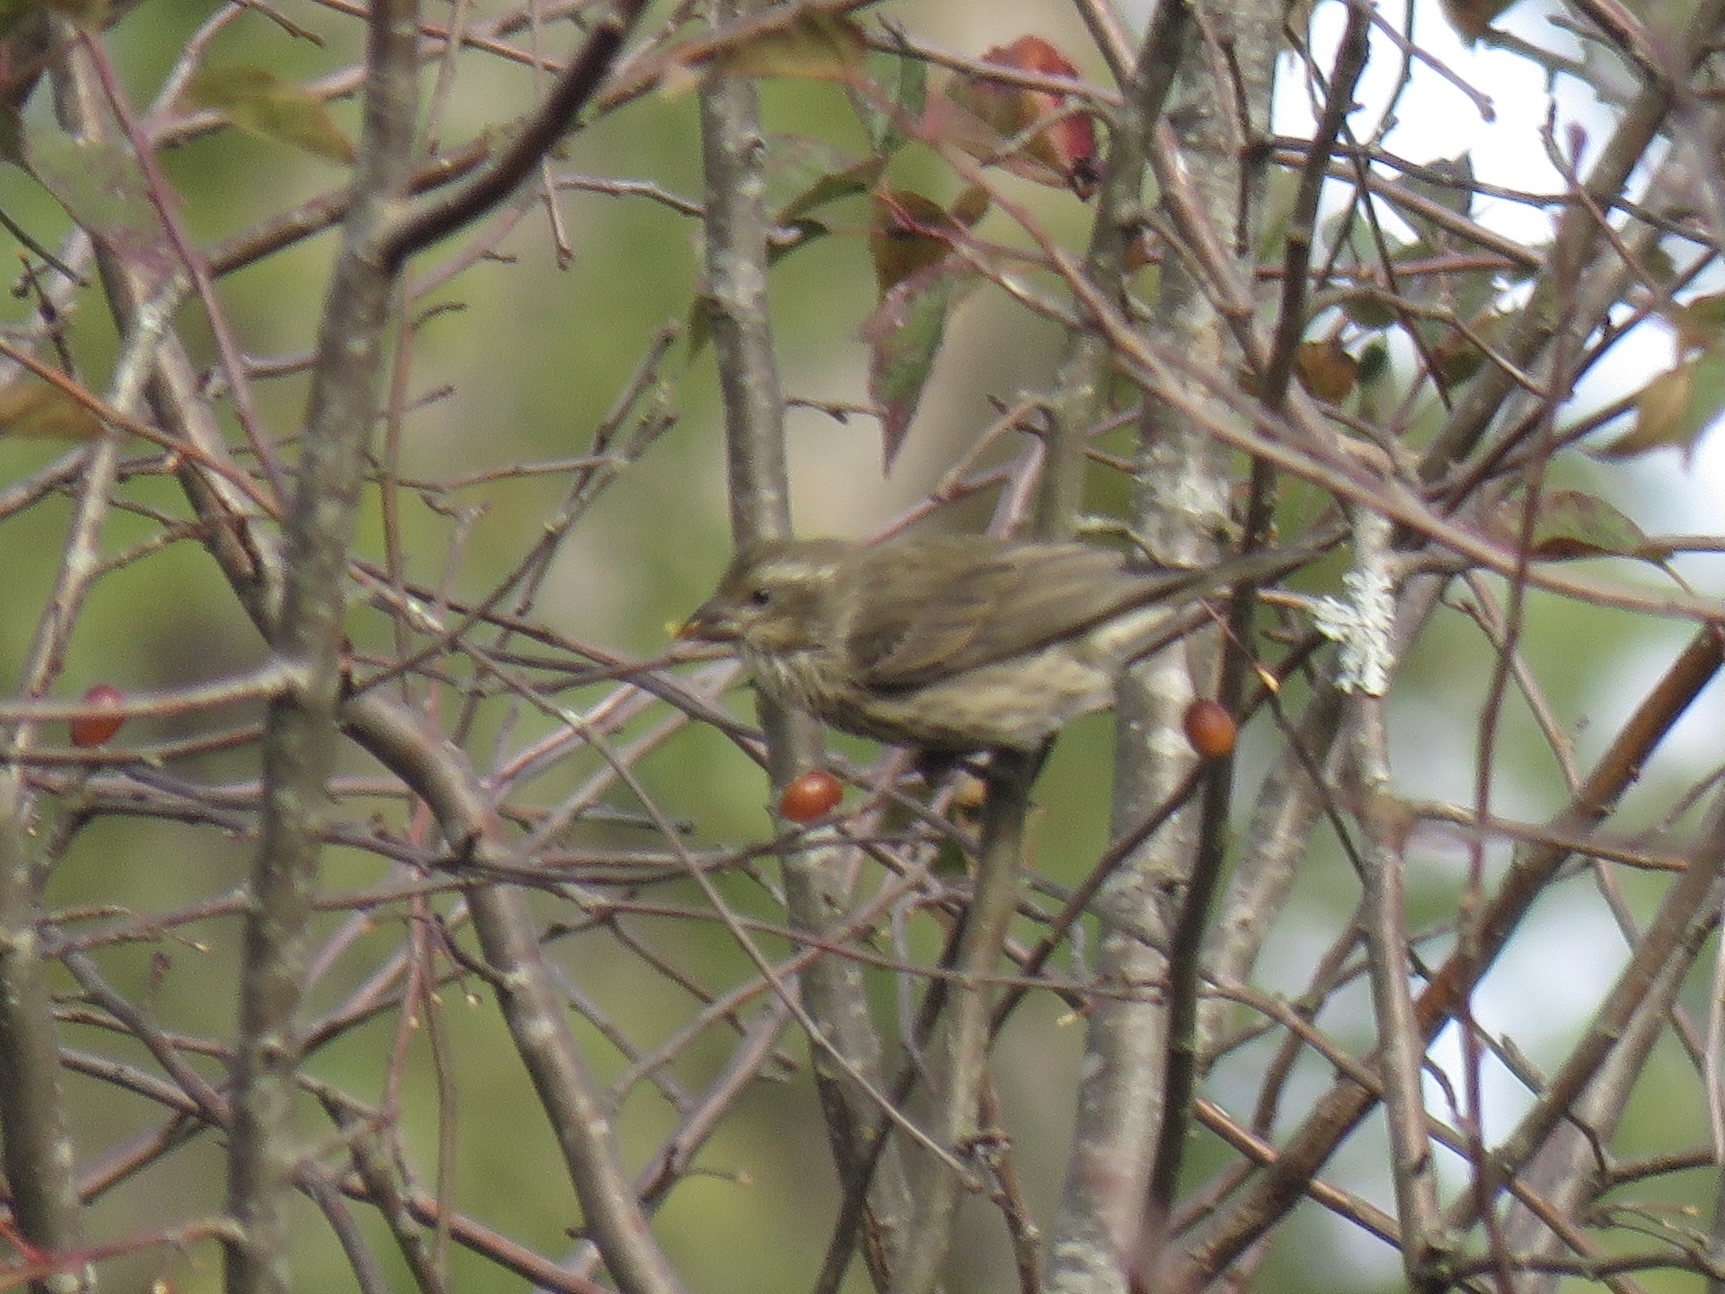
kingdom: Animalia
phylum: Chordata
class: Aves
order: Passeriformes
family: Fringillidae
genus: Haemorhous
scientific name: Haemorhous purpureus
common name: Purple finch
